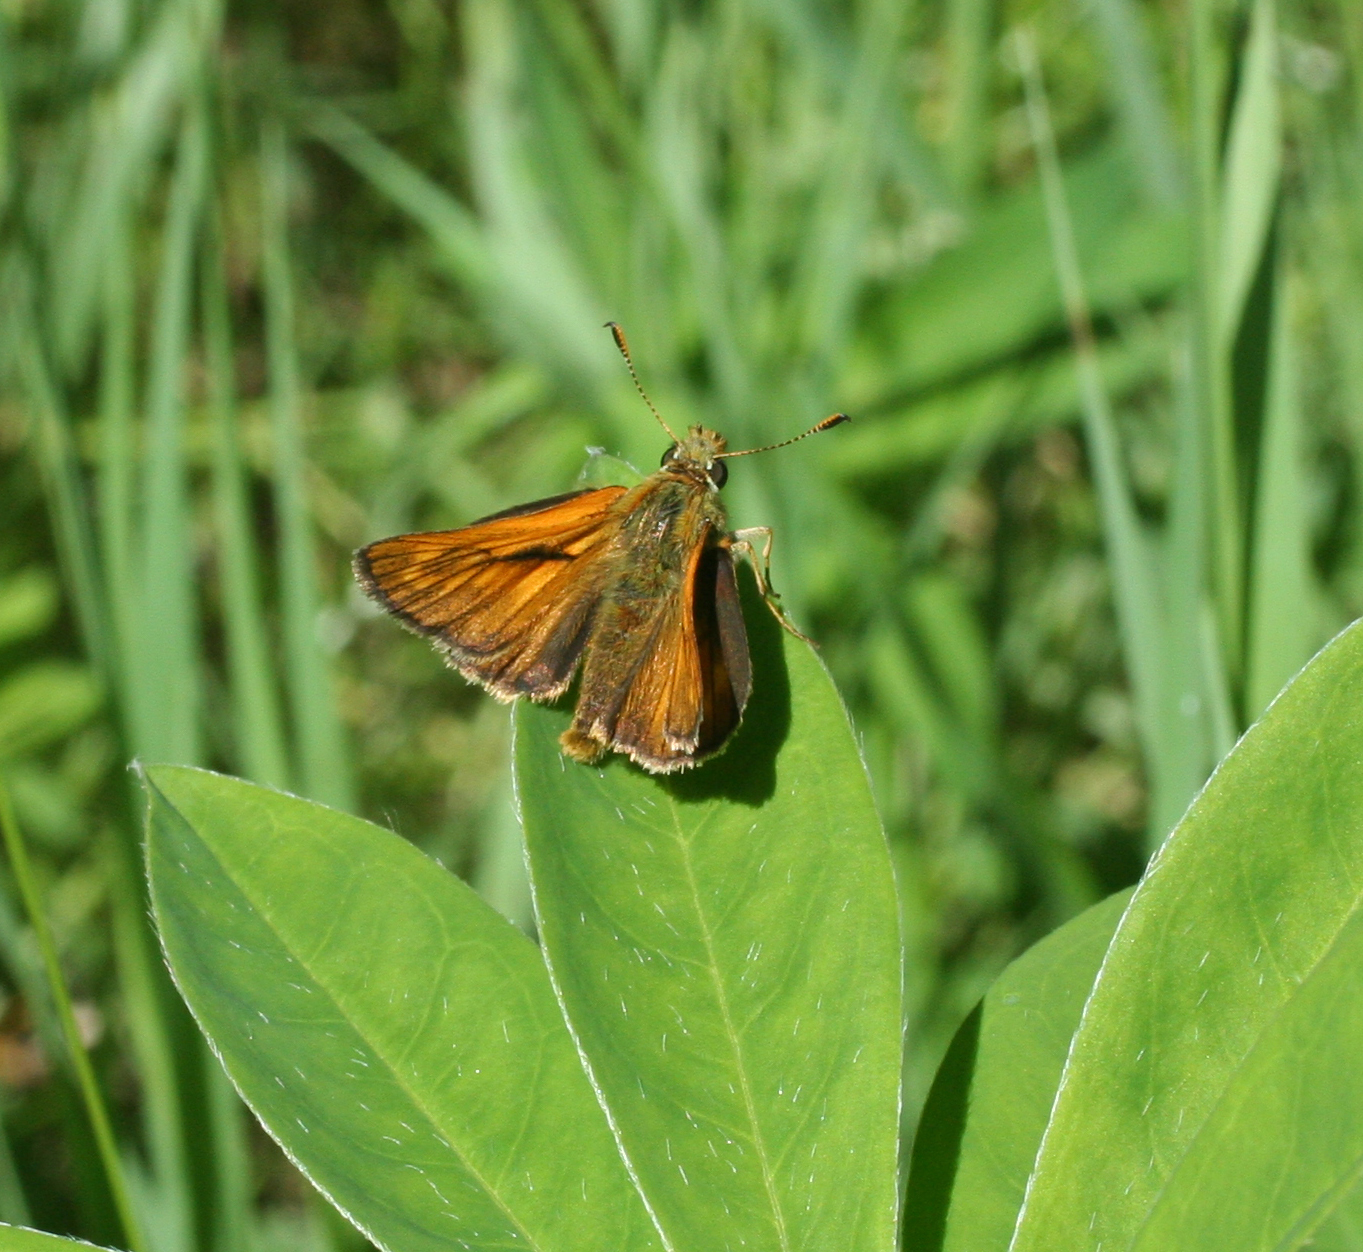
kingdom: Animalia
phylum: Arthropoda
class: Insecta
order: Lepidoptera
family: Hesperiidae
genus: Ochlodes
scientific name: Ochlodes venata
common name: Large skipper
